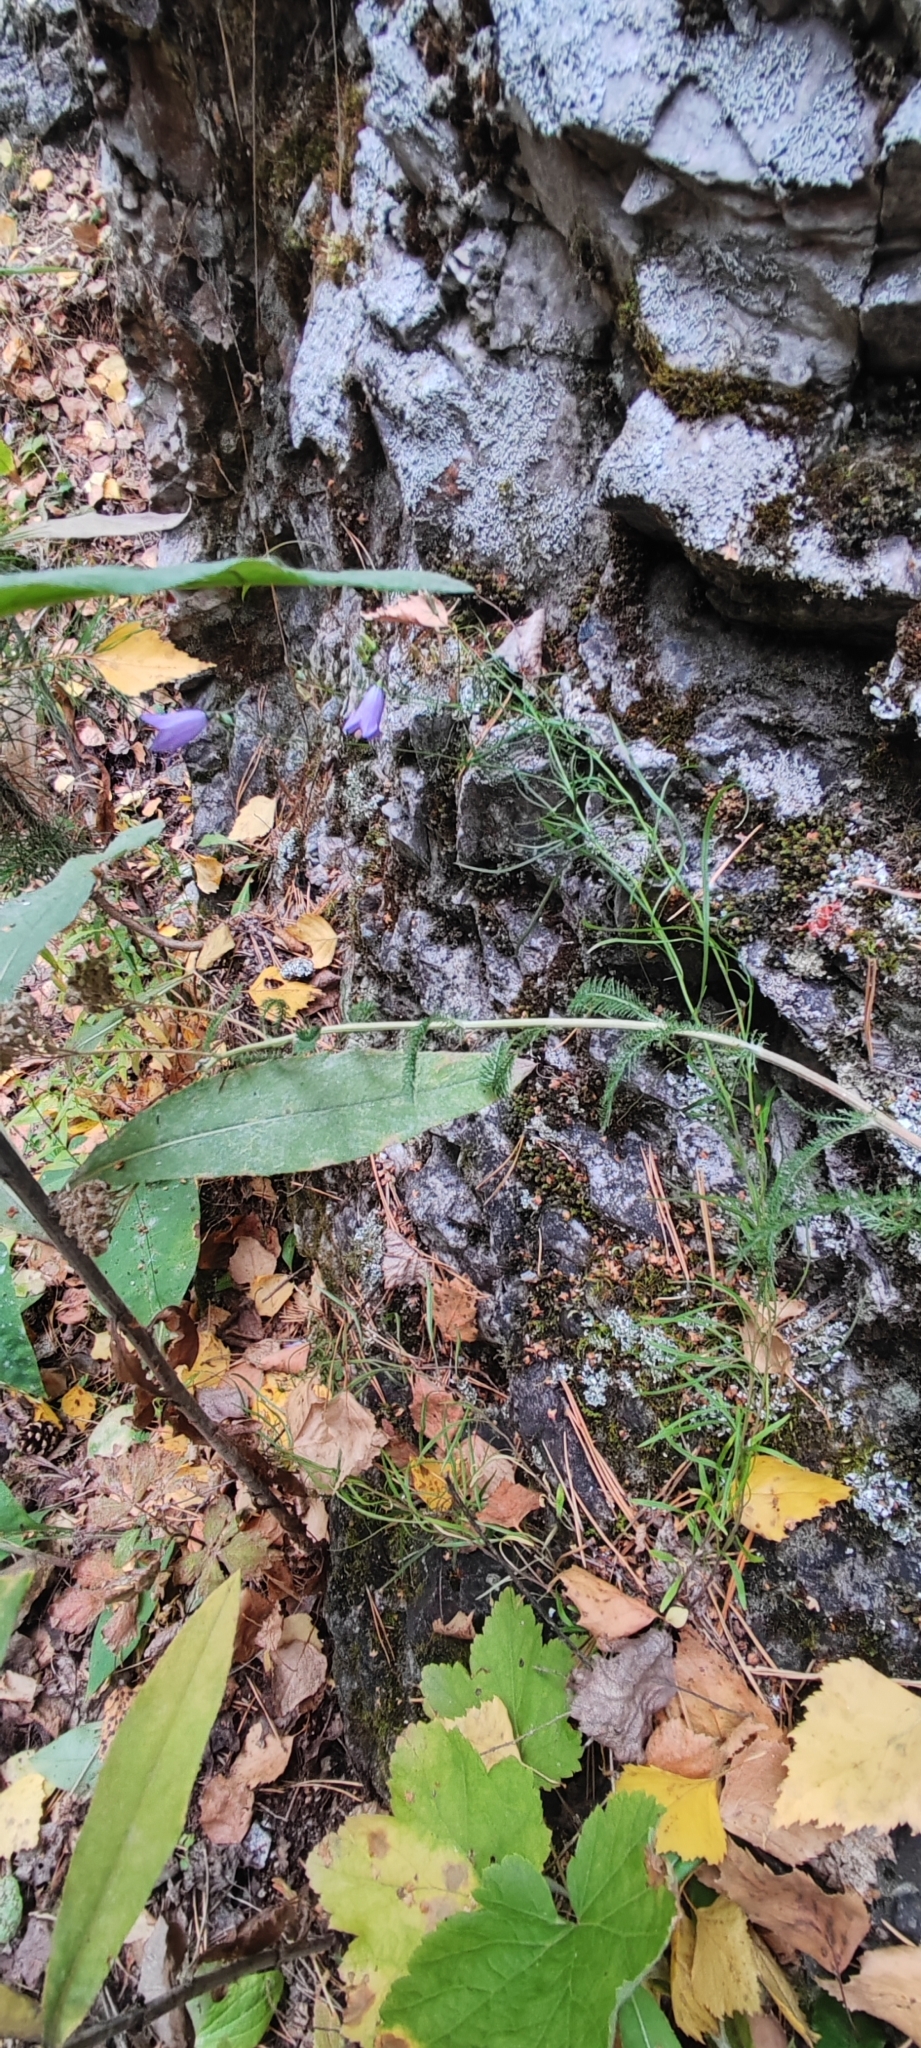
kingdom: Plantae
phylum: Tracheophyta
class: Magnoliopsida
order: Asterales
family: Campanulaceae
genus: Campanula
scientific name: Campanula rotundifolia
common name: Harebell
